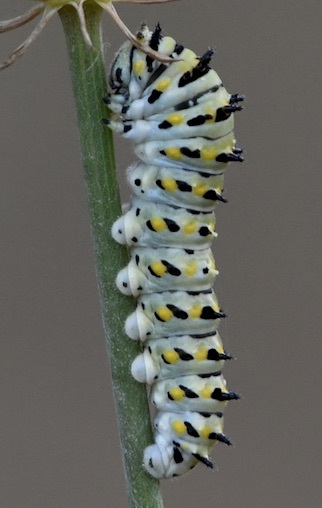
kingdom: Animalia
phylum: Arthropoda
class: Insecta
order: Lepidoptera
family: Papilionidae
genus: Papilio
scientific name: Papilio zelicaon
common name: Anise swallowtail
